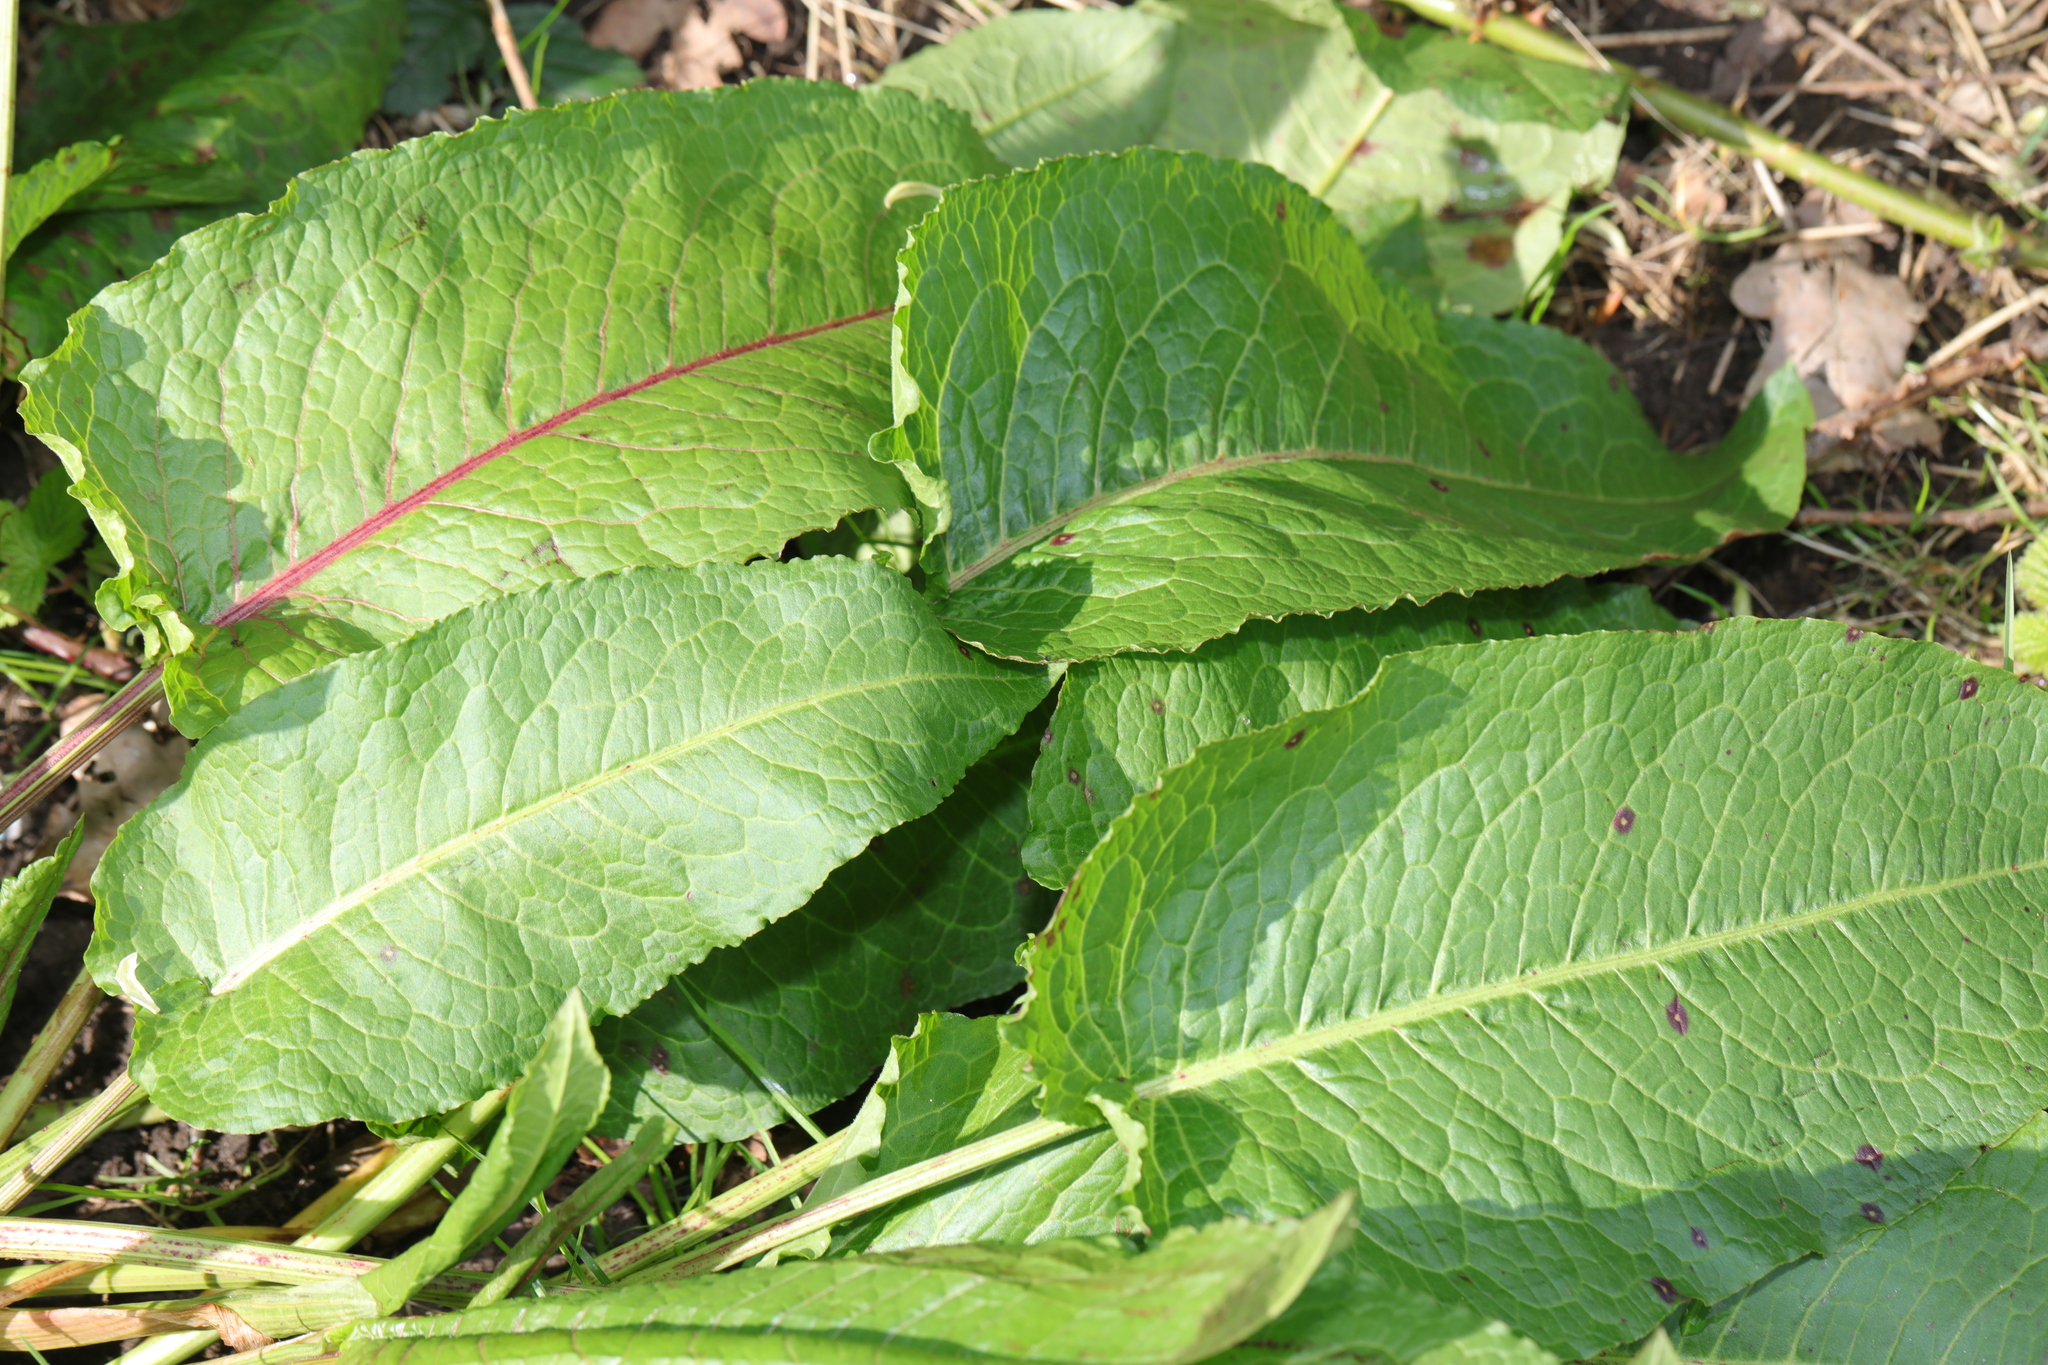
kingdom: Plantae
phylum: Tracheophyta
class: Magnoliopsida
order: Caryophyllales
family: Polygonaceae
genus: Rumex
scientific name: Rumex obtusifolius
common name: Bitter dock
